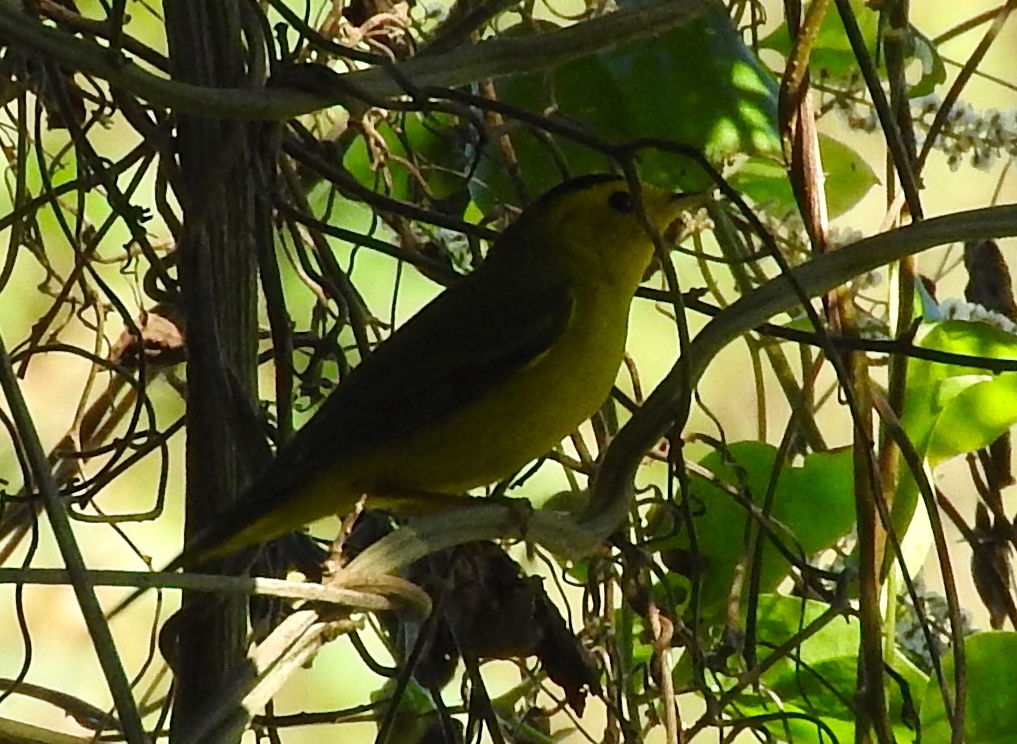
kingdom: Animalia
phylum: Chordata
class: Aves
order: Passeriformes
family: Parulidae
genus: Cardellina
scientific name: Cardellina pusilla
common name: Wilson's warbler
